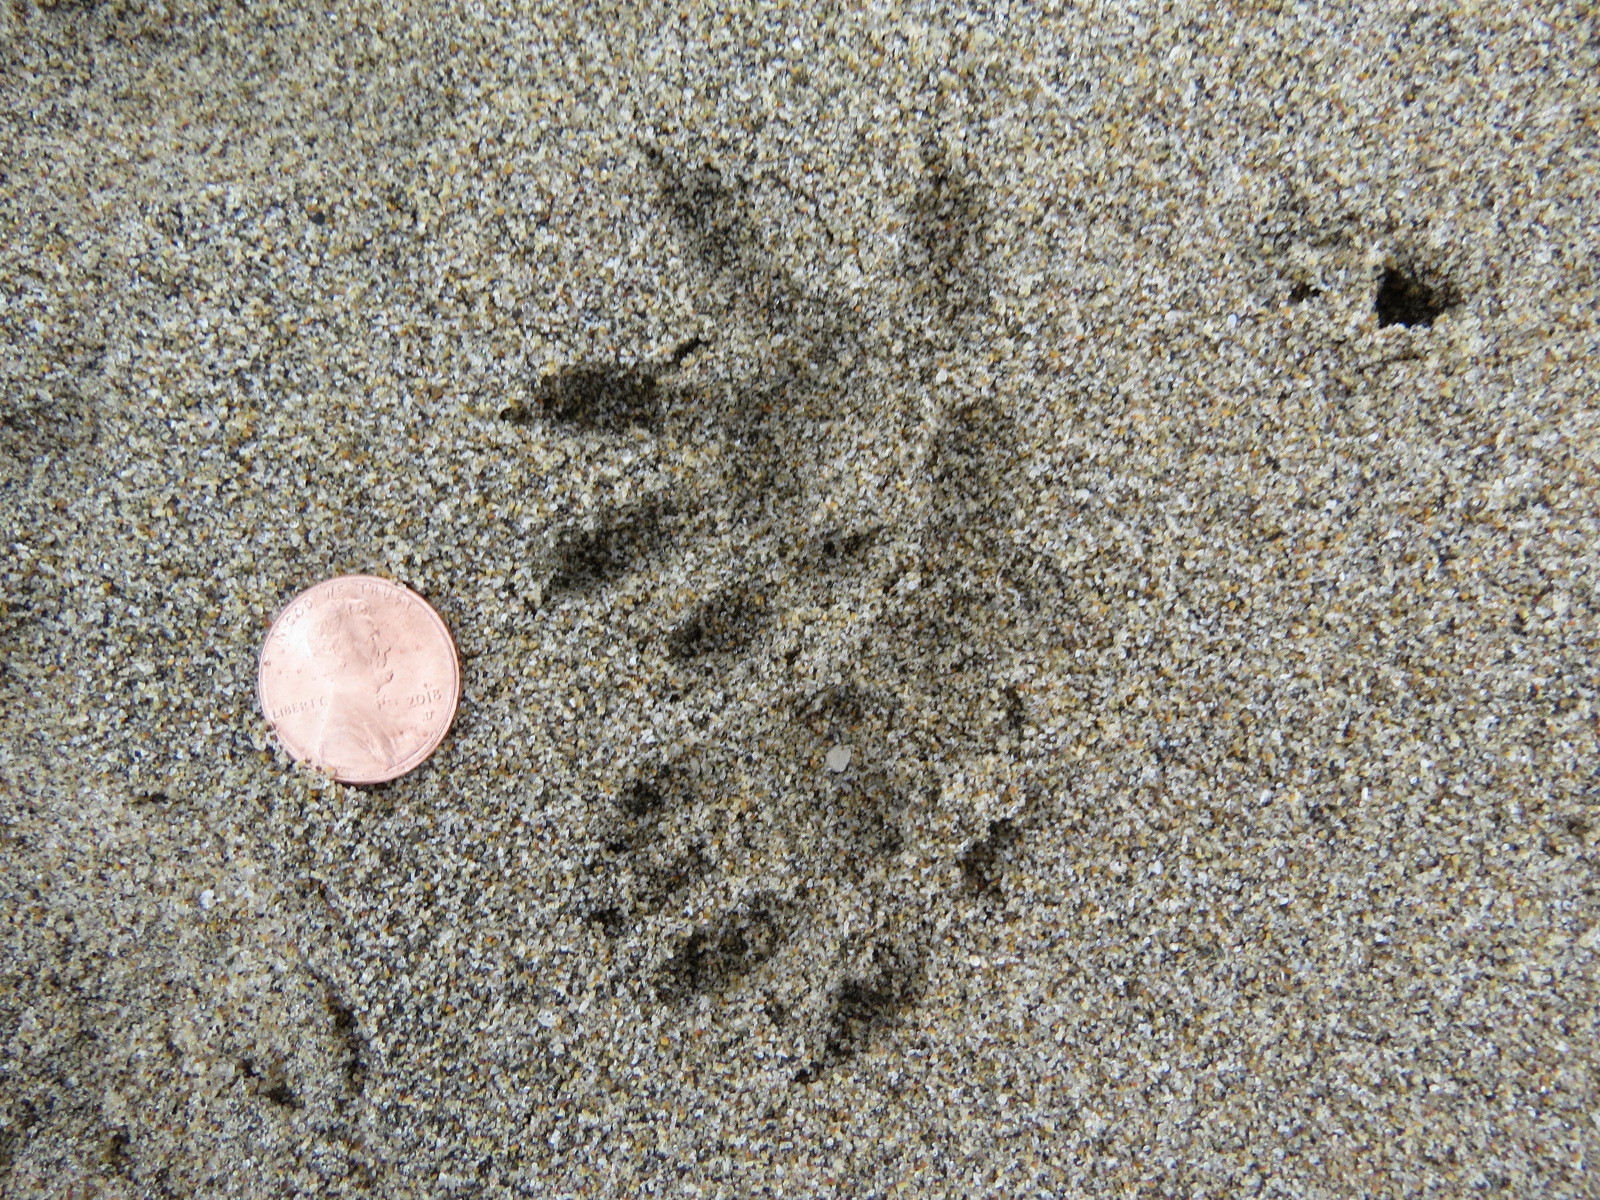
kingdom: Animalia
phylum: Chordata
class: Mammalia
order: Didelphimorphia
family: Didelphidae
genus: Didelphis
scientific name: Didelphis virginiana
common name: Virginia opossum
